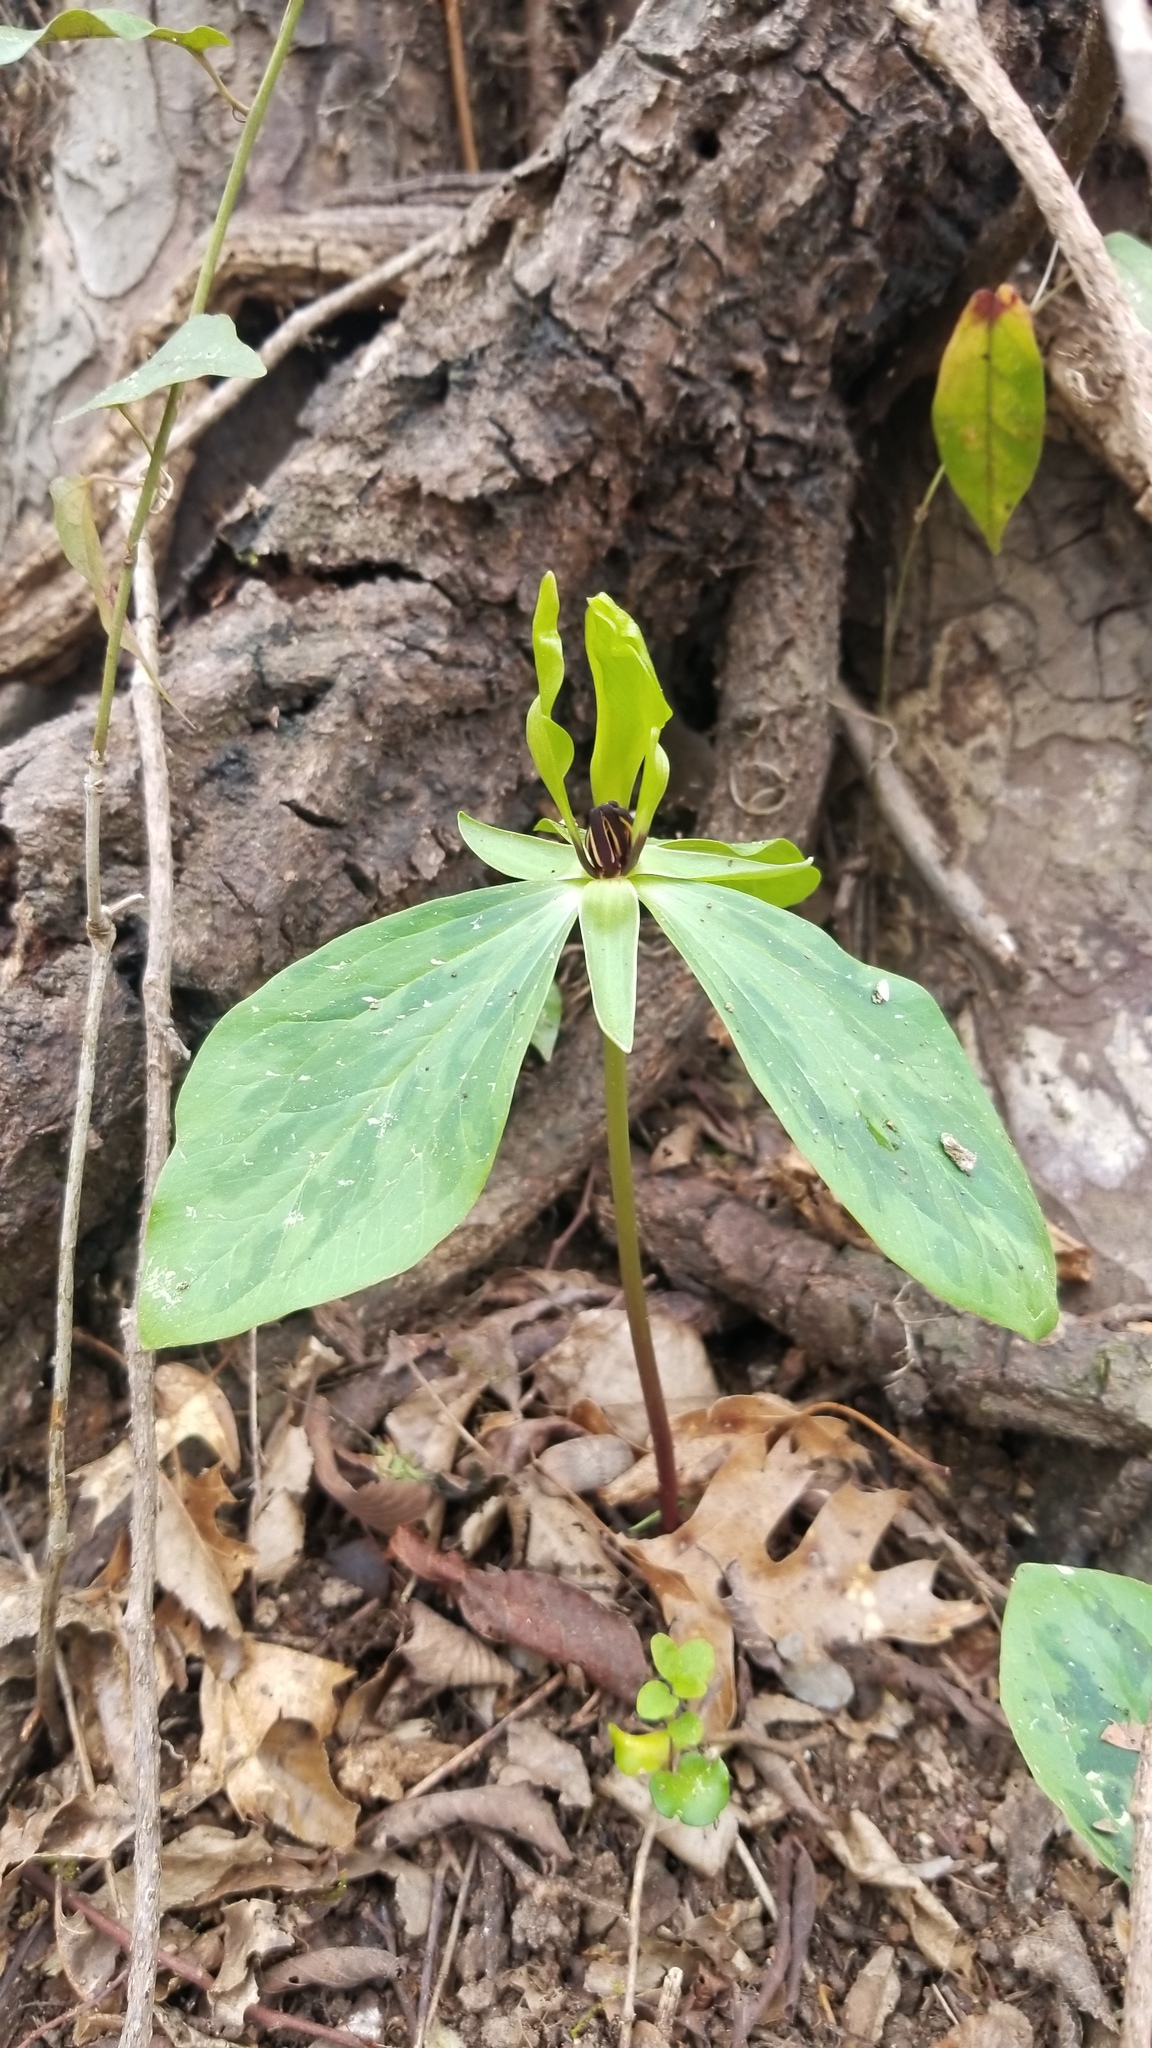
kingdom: Plantae
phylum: Tracheophyta
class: Liliopsida
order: Liliales
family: Melanthiaceae
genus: Trillium
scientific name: Trillium oostingii
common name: Wateree trillium
